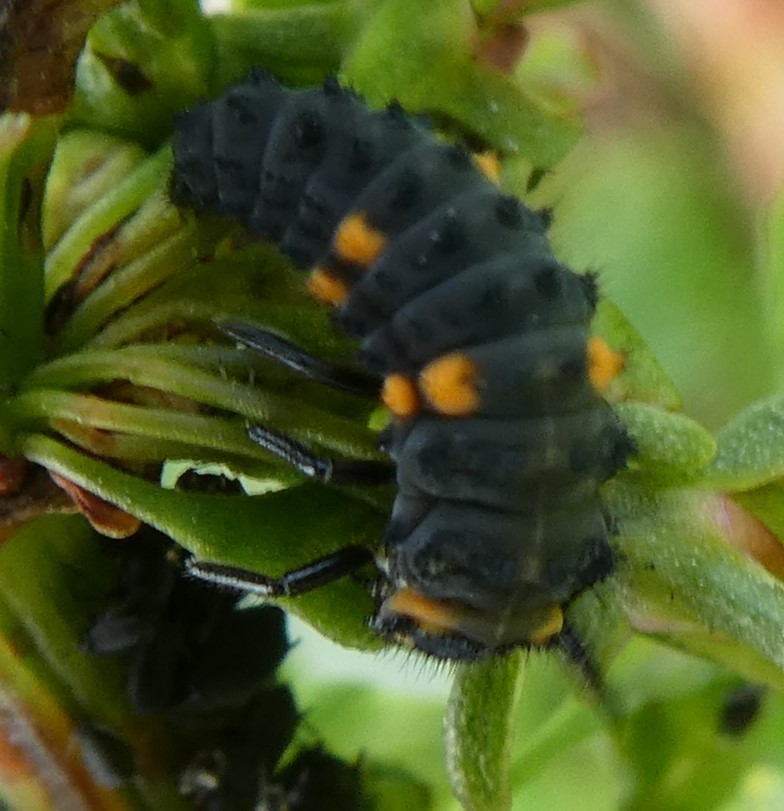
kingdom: Animalia
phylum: Arthropoda
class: Insecta
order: Coleoptera
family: Coccinellidae
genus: Coccinella
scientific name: Coccinella septempunctata
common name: Sevenspotted lady beetle
